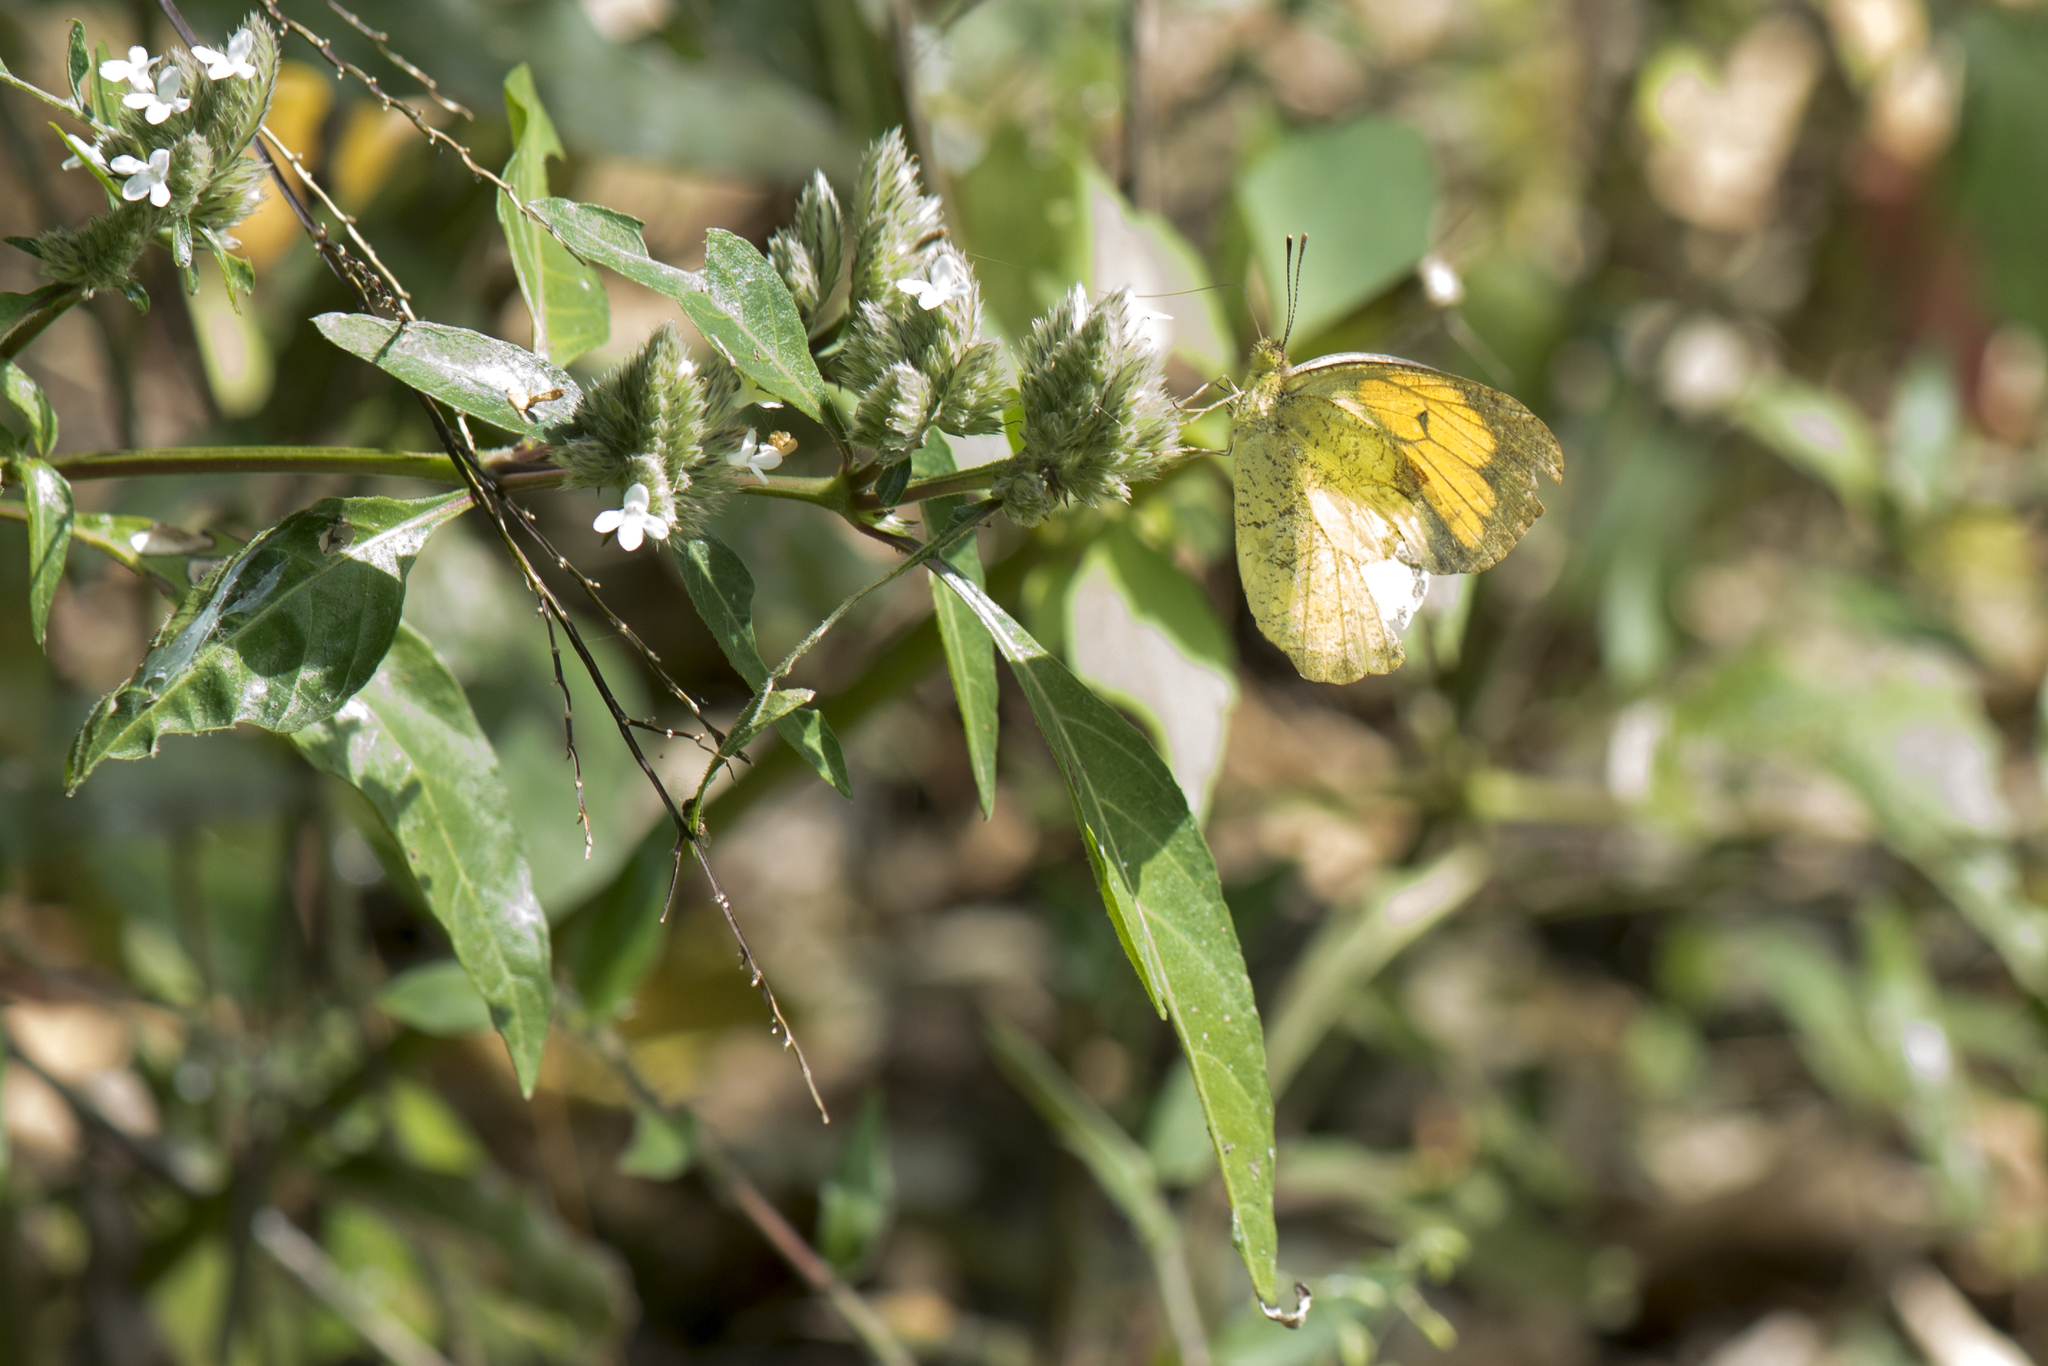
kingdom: Animalia
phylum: Arthropoda
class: Insecta
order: Lepidoptera
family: Pieridae
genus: Ixias
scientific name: Ixias pyrene
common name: Yellow orange tip
